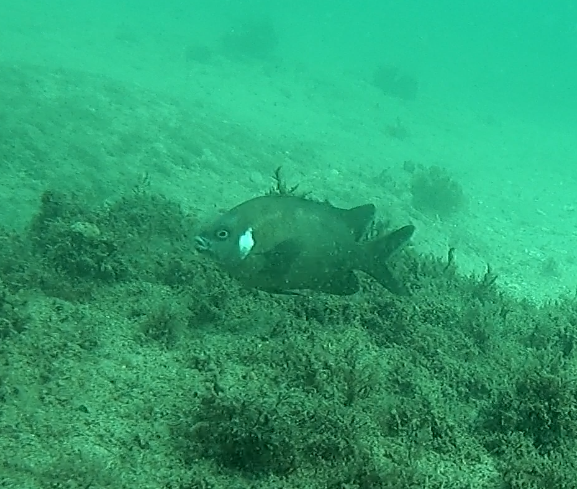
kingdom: Animalia
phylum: Chordata
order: Perciformes
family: Pomacentridae
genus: Parma
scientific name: Parma microlepis
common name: White-ear
